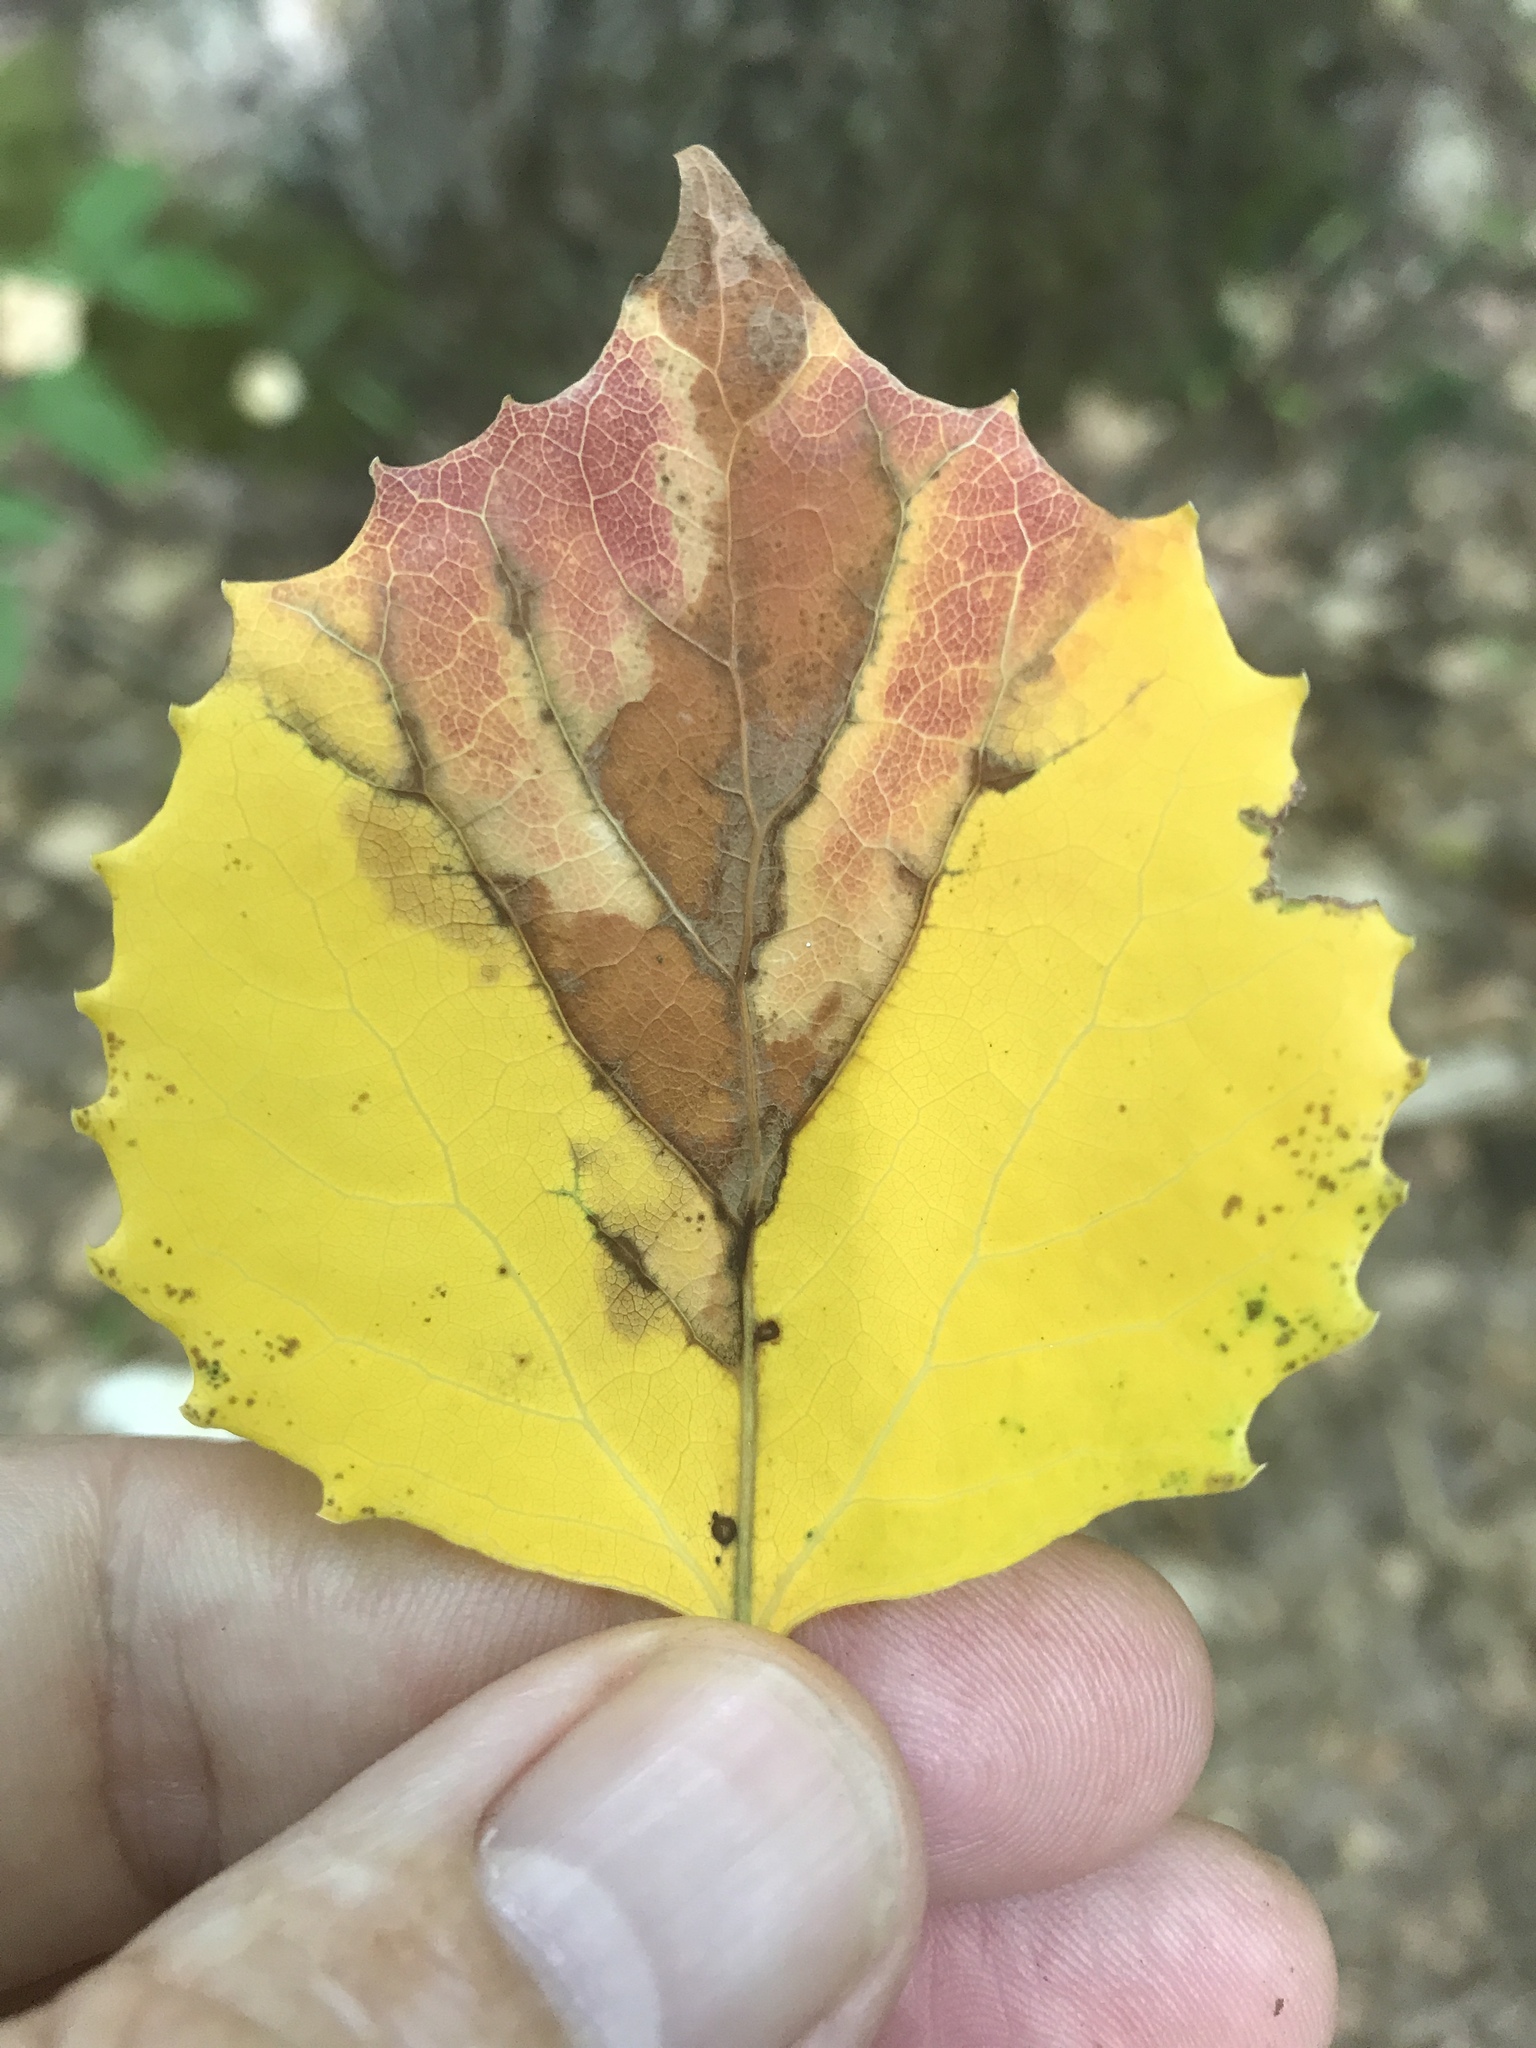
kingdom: Plantae
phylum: Tracheophyta
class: Magnoliopsida
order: Malpighiales
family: Salicaceae
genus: Populus
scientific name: Populus grandidentata
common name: Bigtooth aspen
